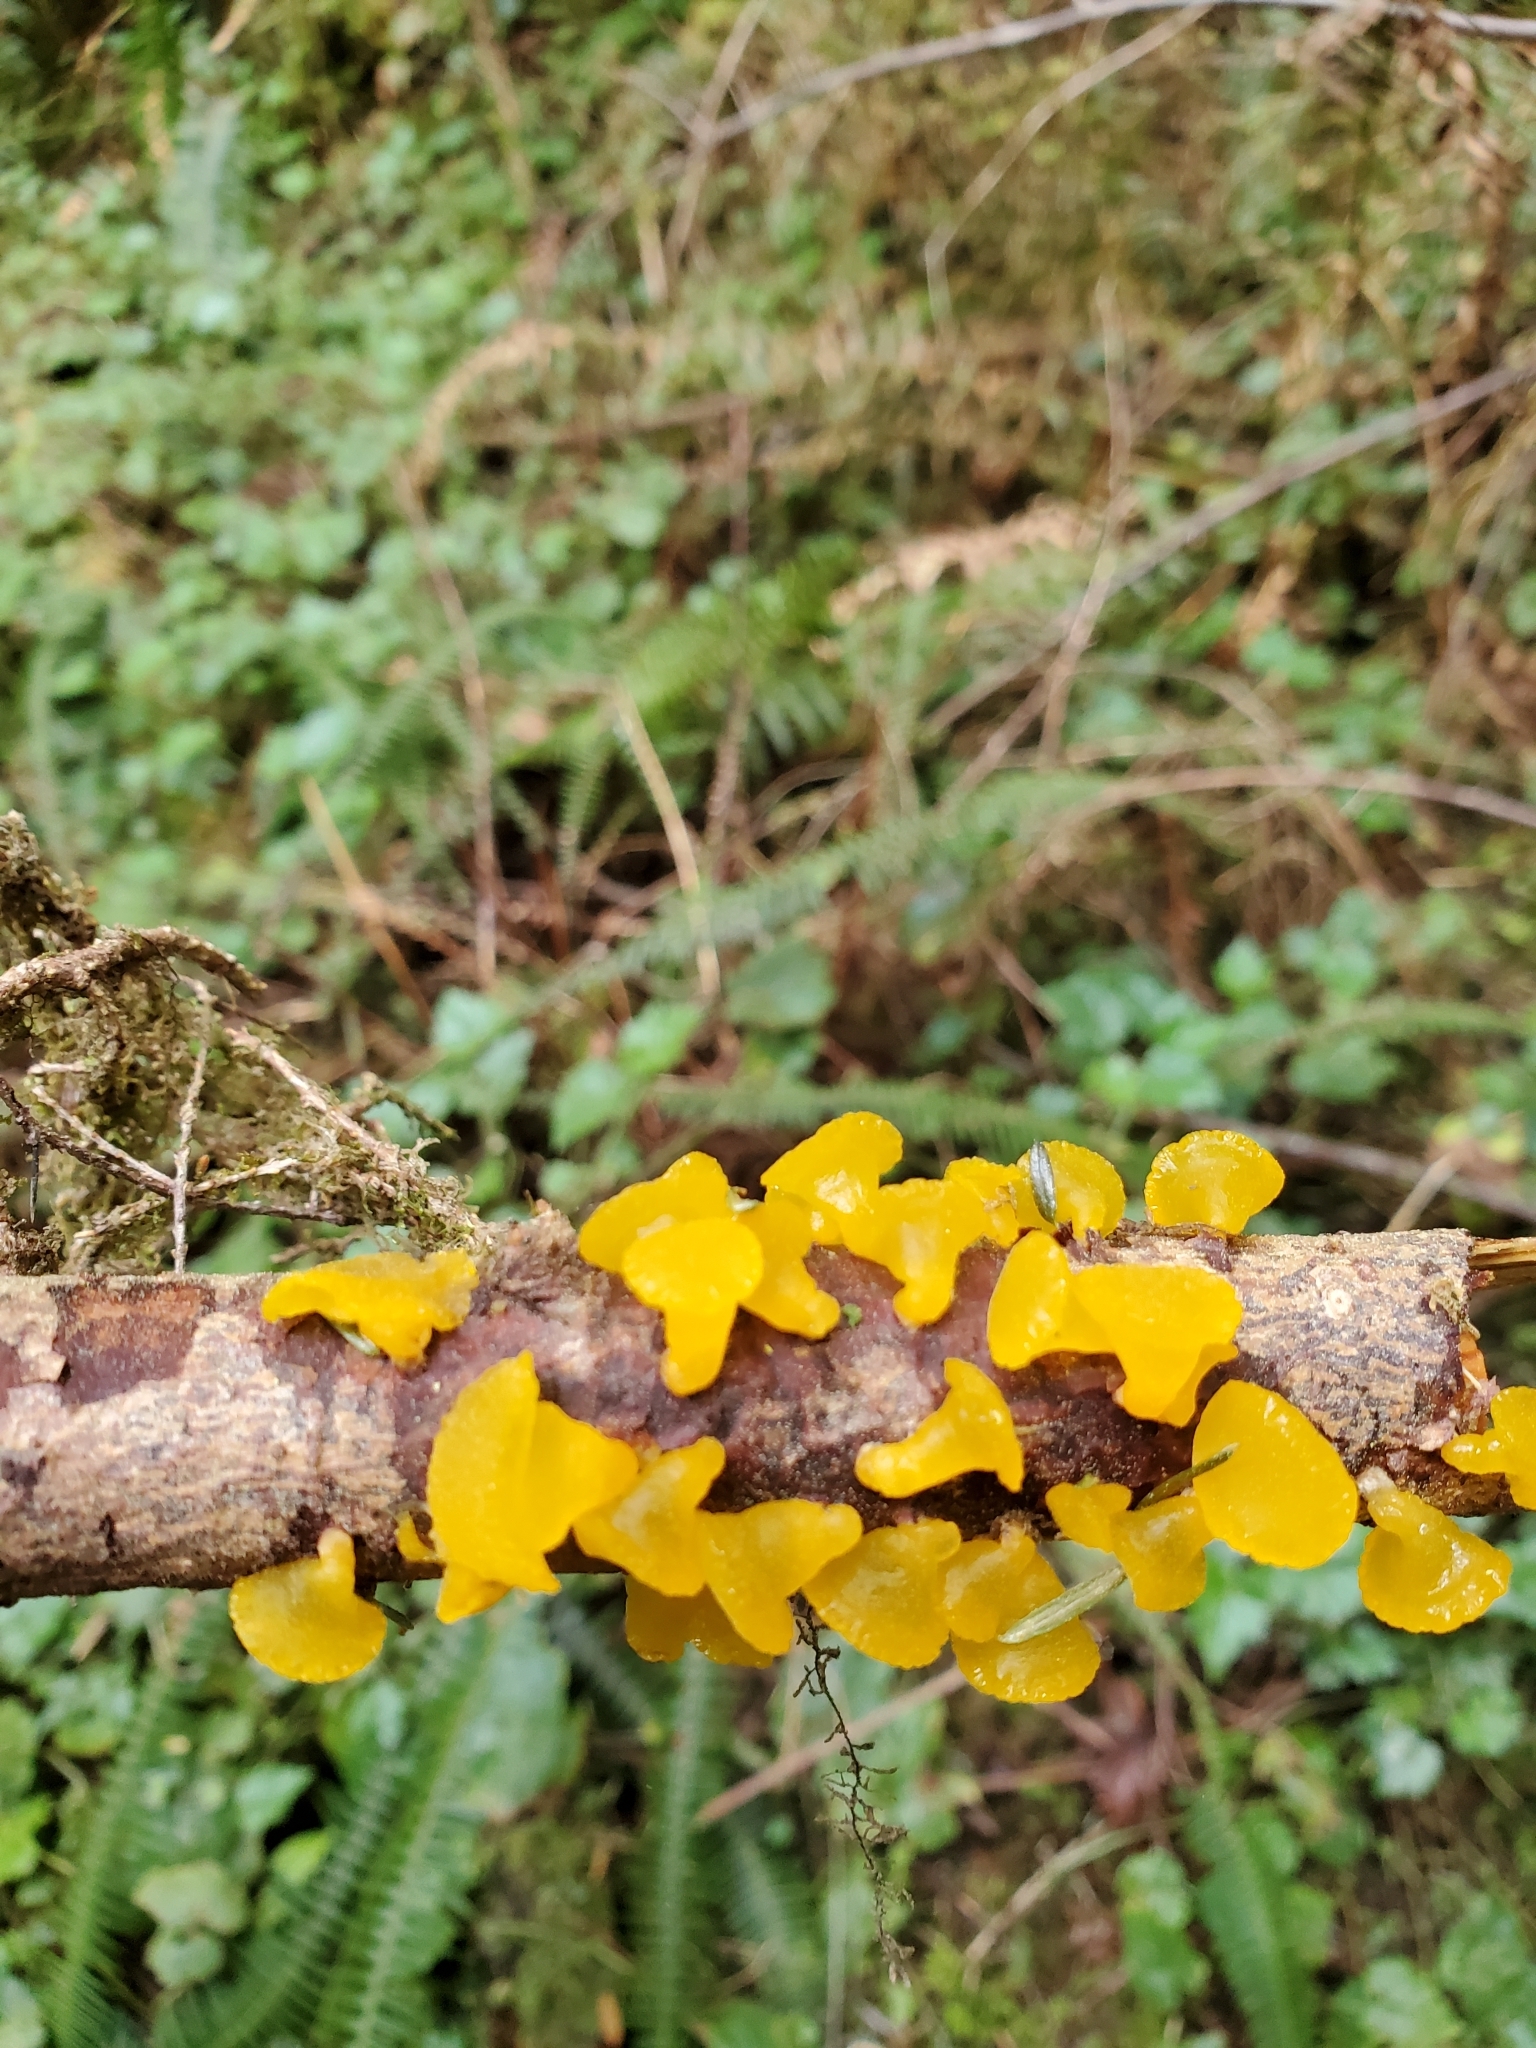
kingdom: Fungi
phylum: Basidiomycota
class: Dacrymycetes
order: Dacrymycetales
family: Dacrymycetaceae
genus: Guepiniopsis
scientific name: Guepiniopsis alpina
